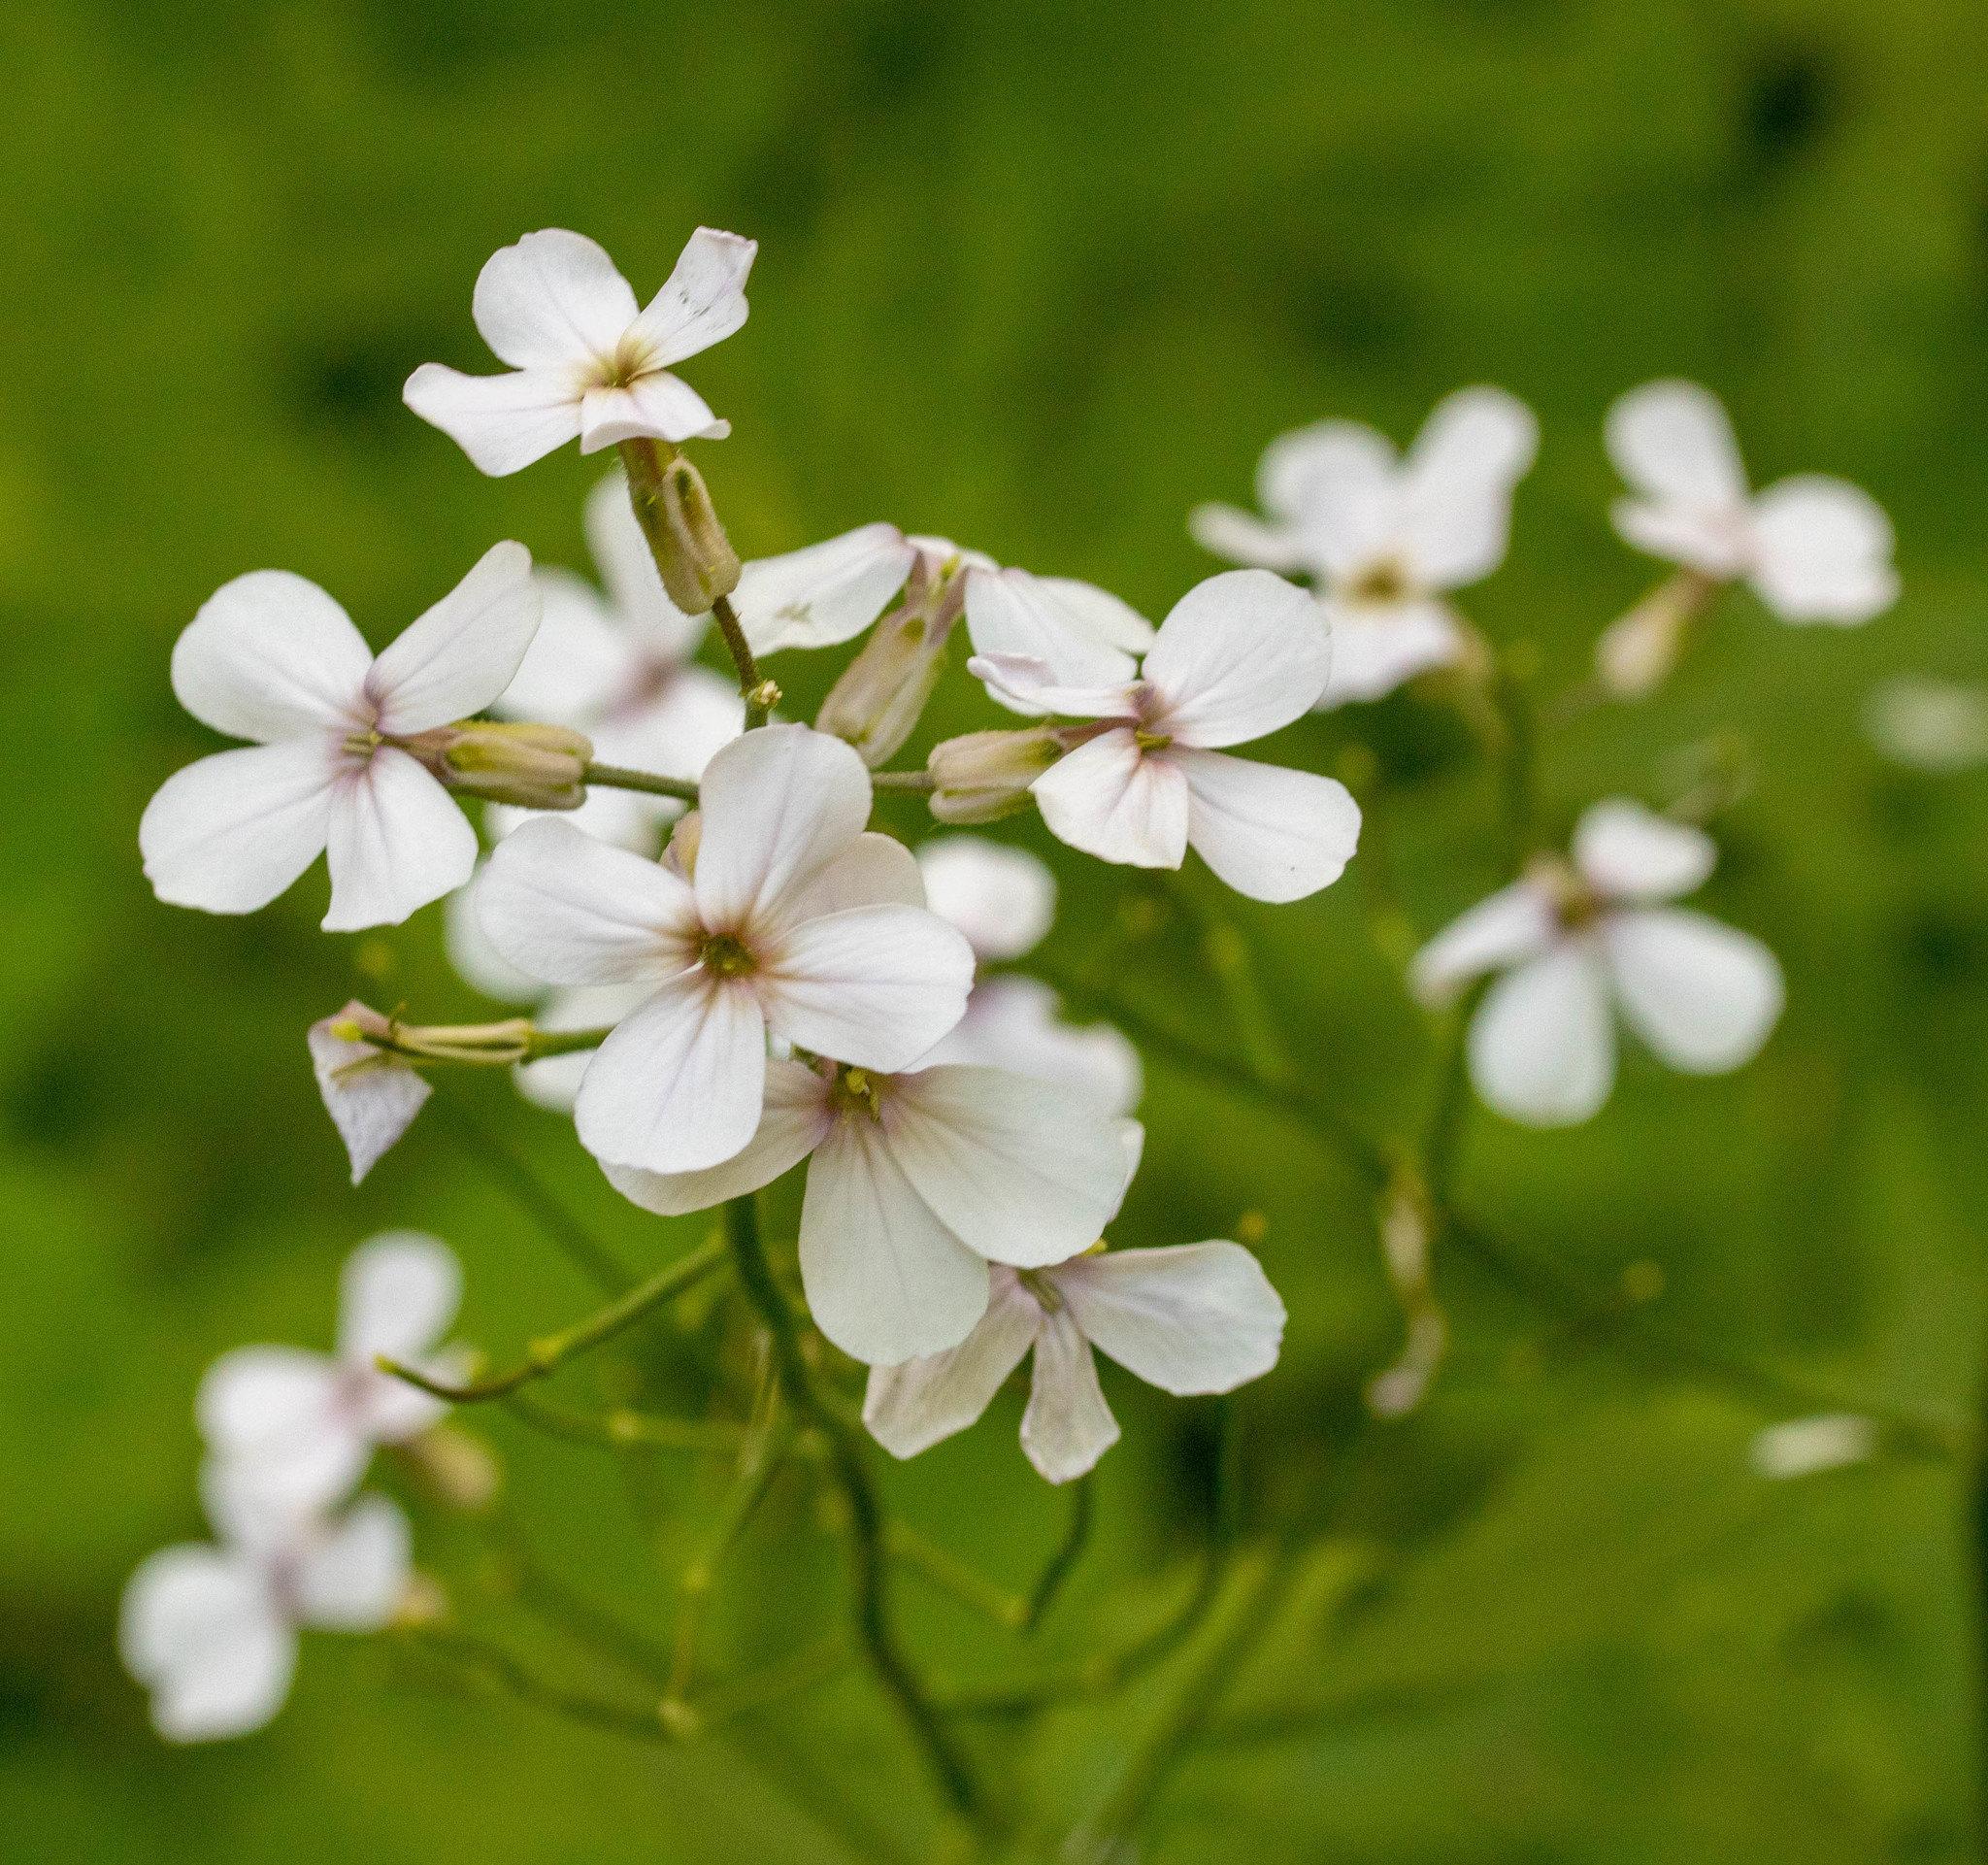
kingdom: Plantae
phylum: Tracheophyta
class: Magnoliopsida
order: Brassicales
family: Brassicaceae
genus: Hesperis
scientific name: Hesperis matronalis
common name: Dame's-violet
